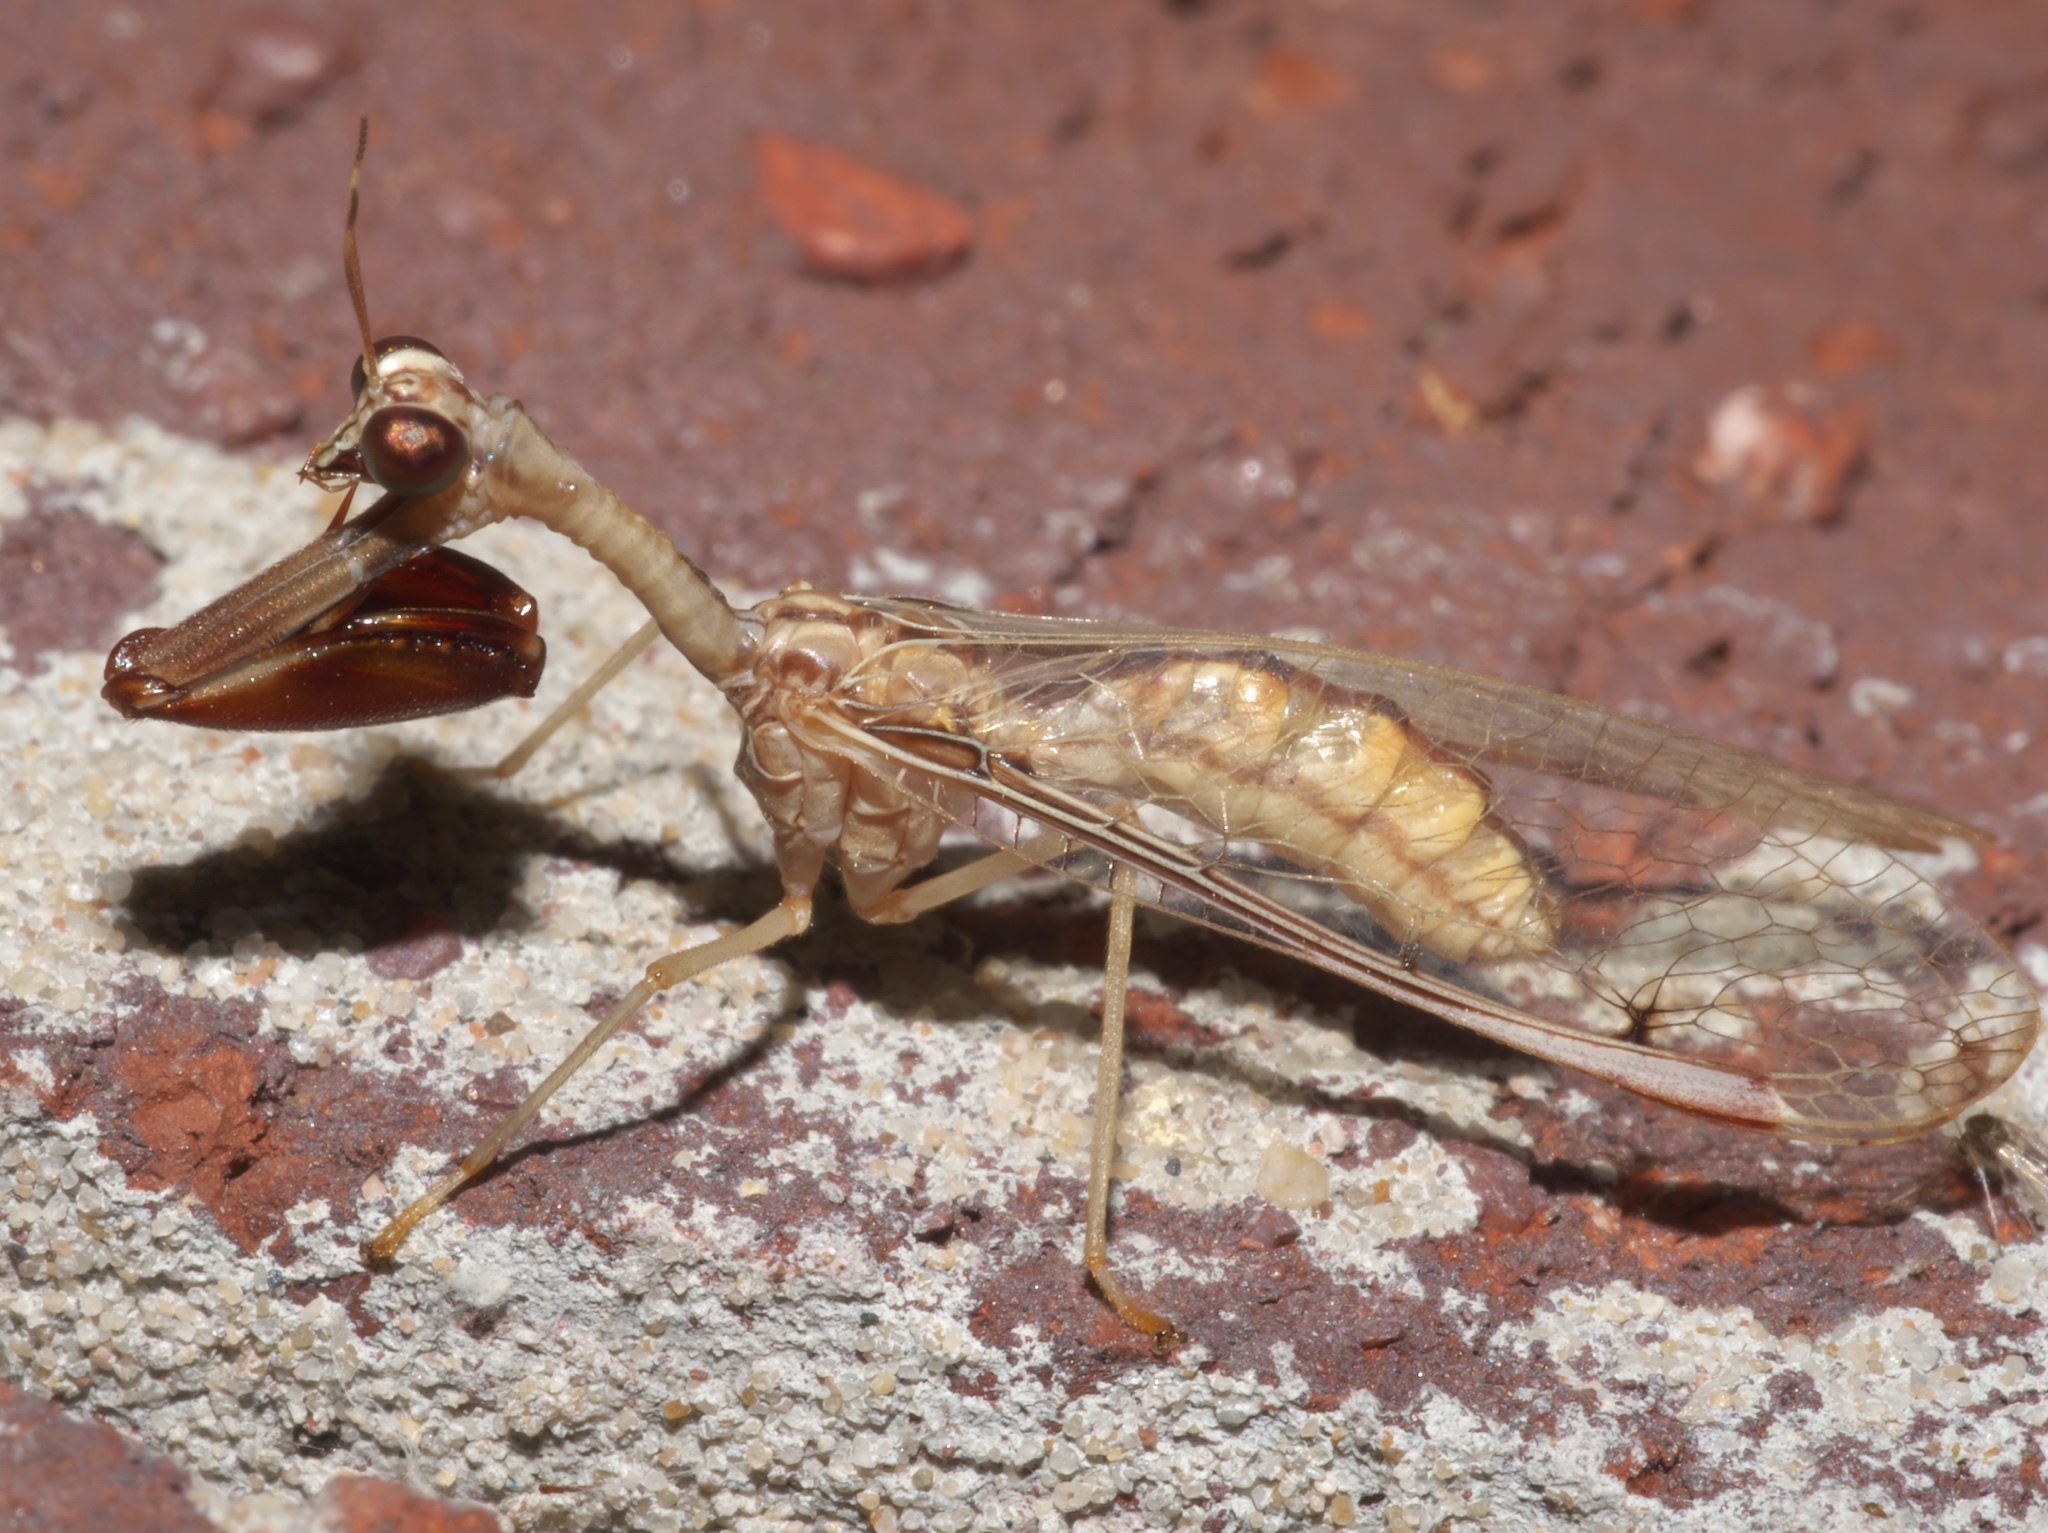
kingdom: Animalia
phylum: Arthropoda
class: Insecta
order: Neuroptera
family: Mantispidae
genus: Dicromantispa
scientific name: Dicromantispa interrupta
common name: Four-spotted mantidfly
